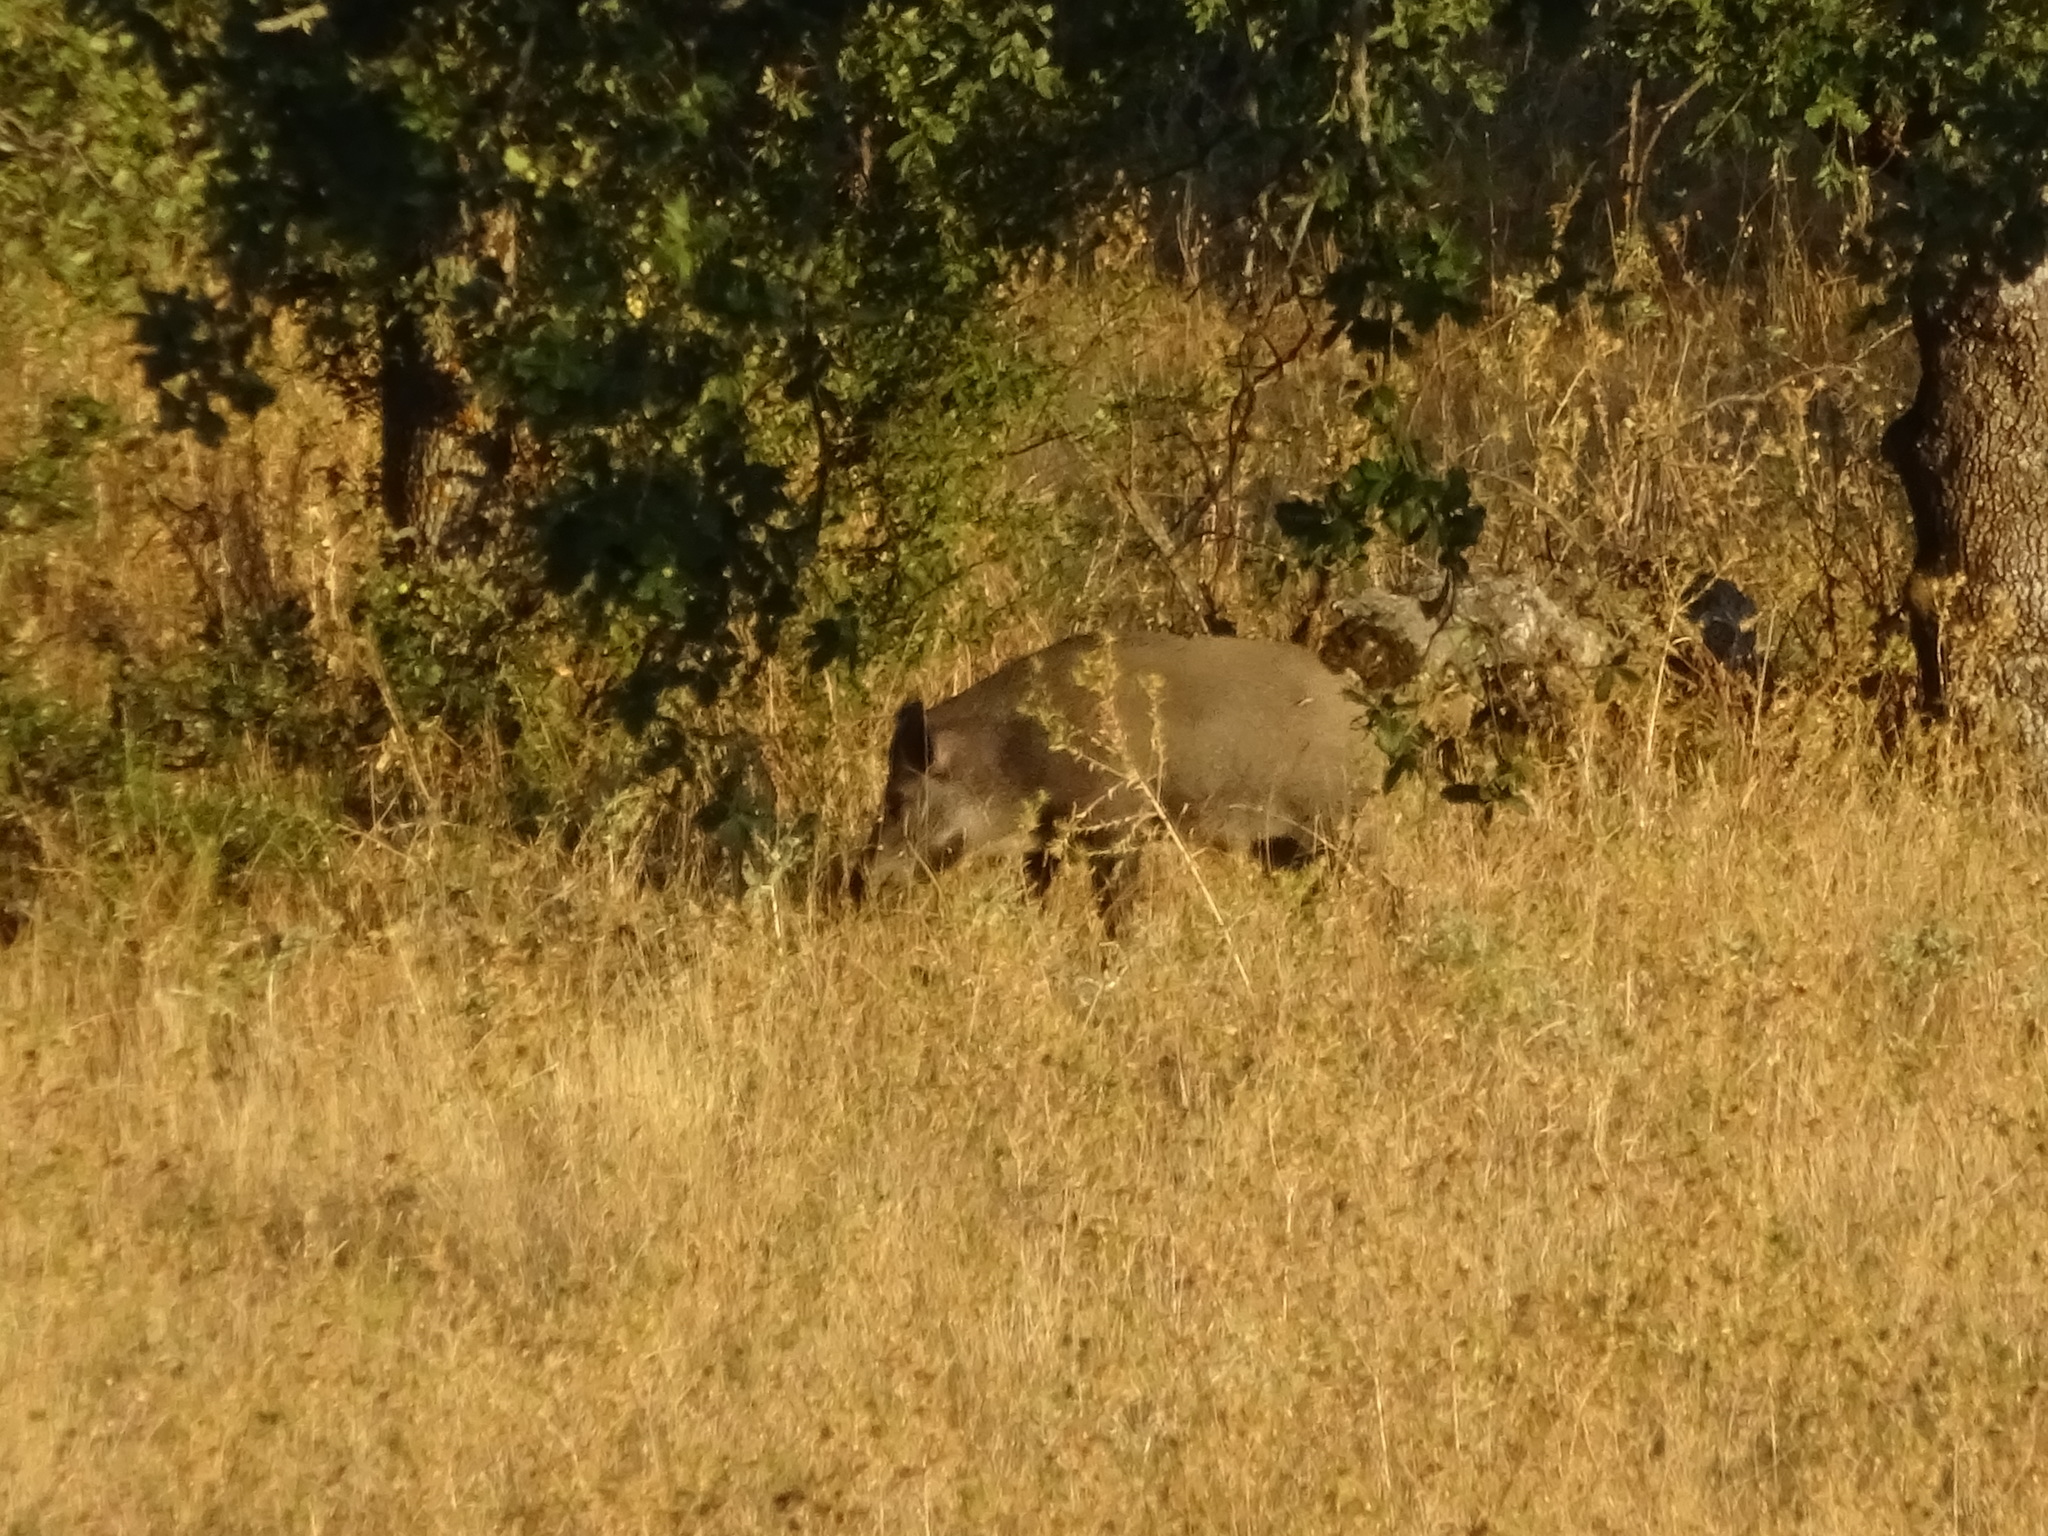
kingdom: Animalia
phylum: Chordata
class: Mammalia
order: Artiodactyla
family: Suidae
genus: Sus
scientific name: Sus scrofa
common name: Wild boar
